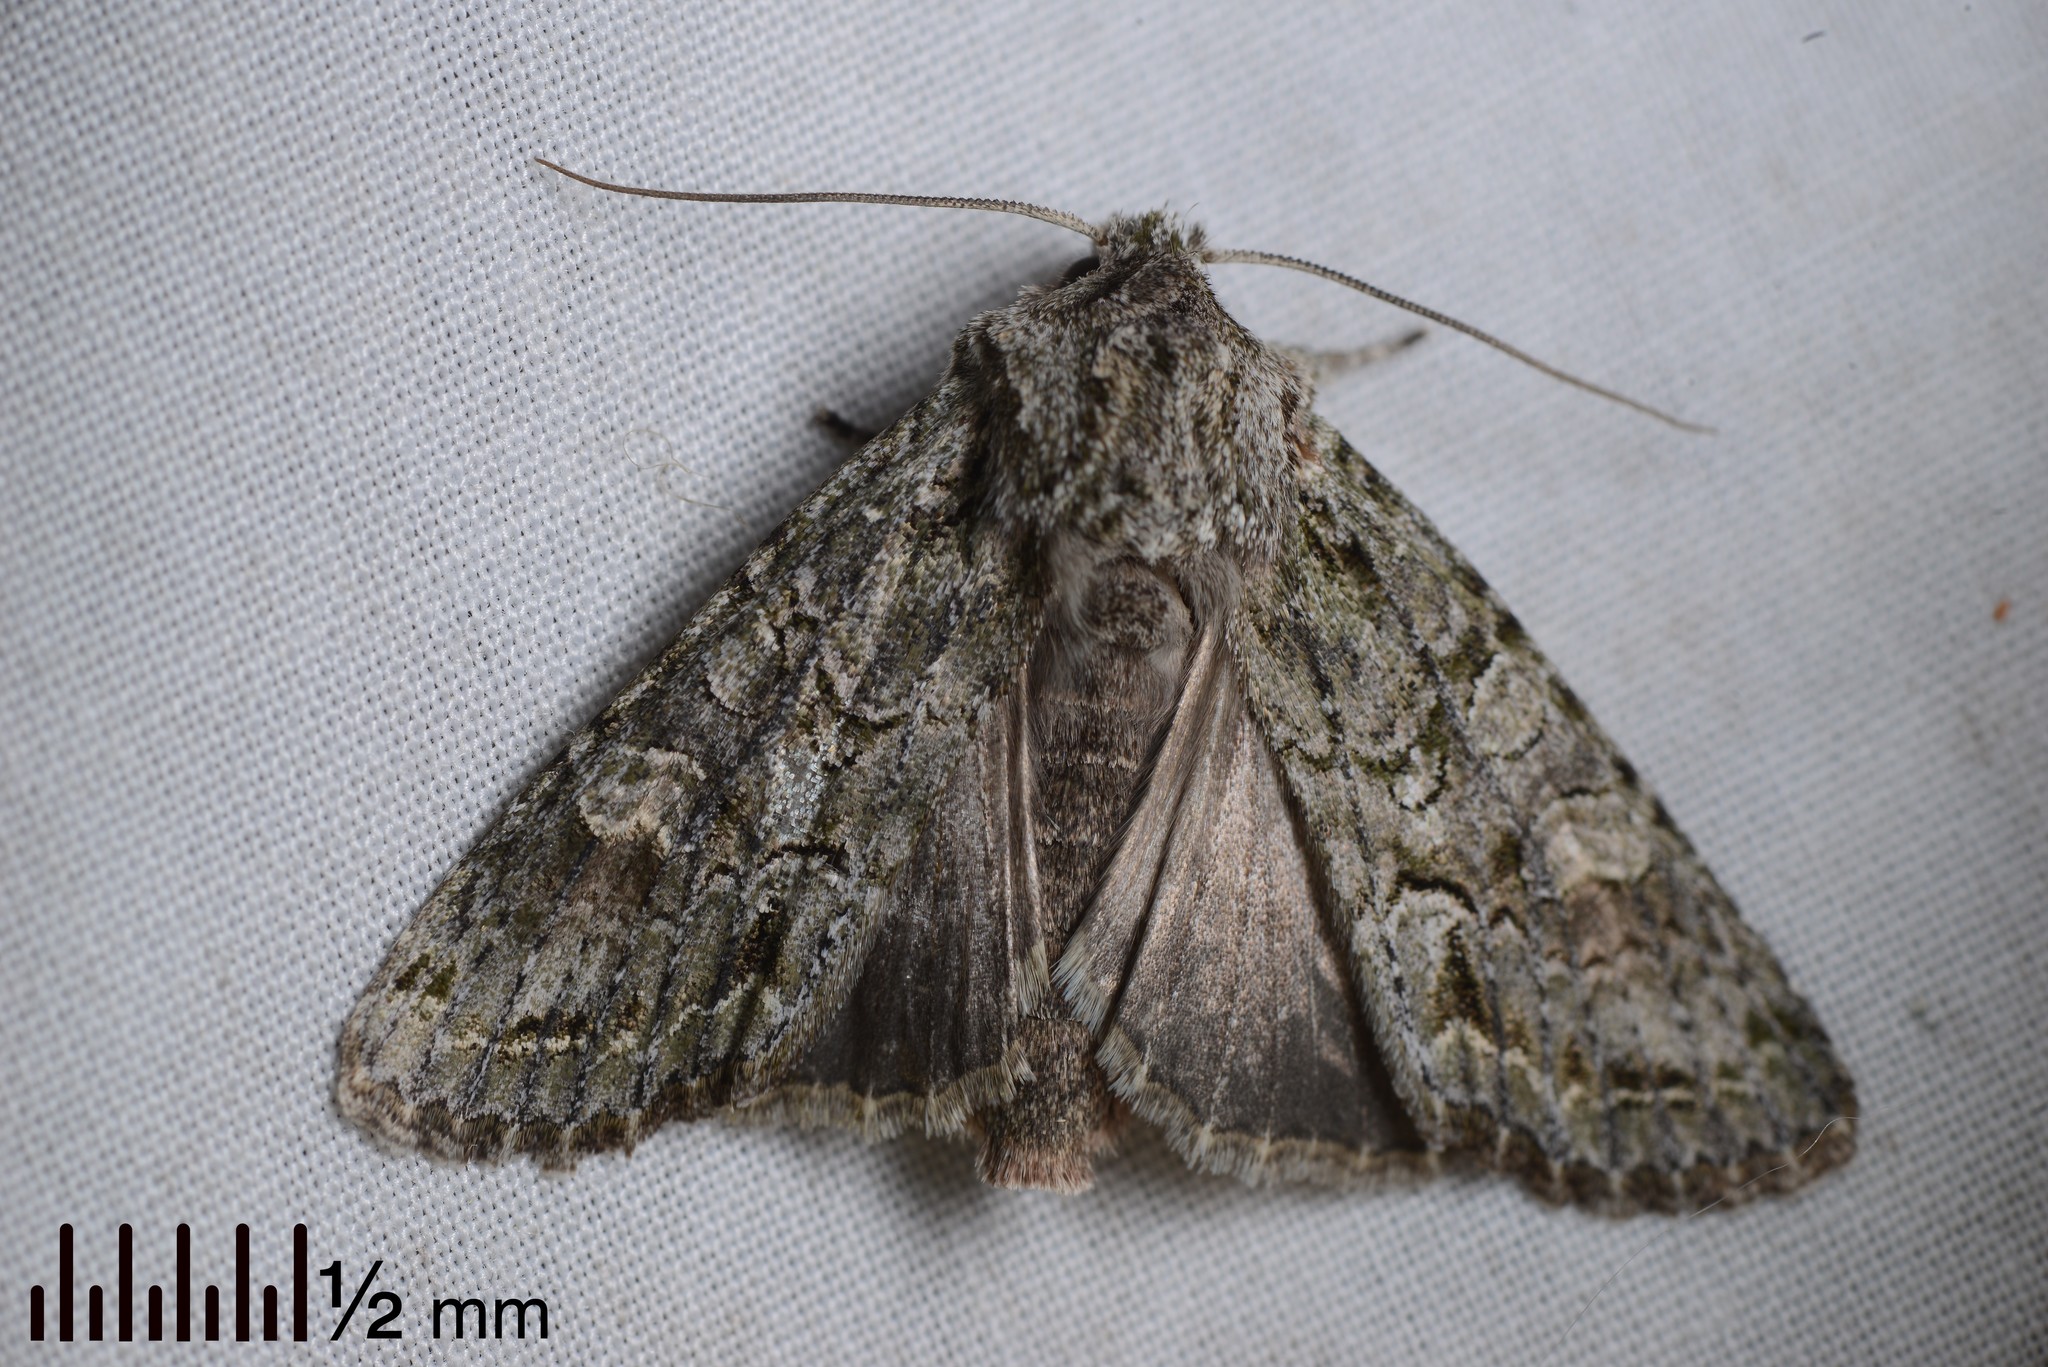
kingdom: Animalia
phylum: Arthropoda
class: Insecta
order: Lepidoptera
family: Noctuidae
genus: Ichneutica
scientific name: Ichneutica mutans
